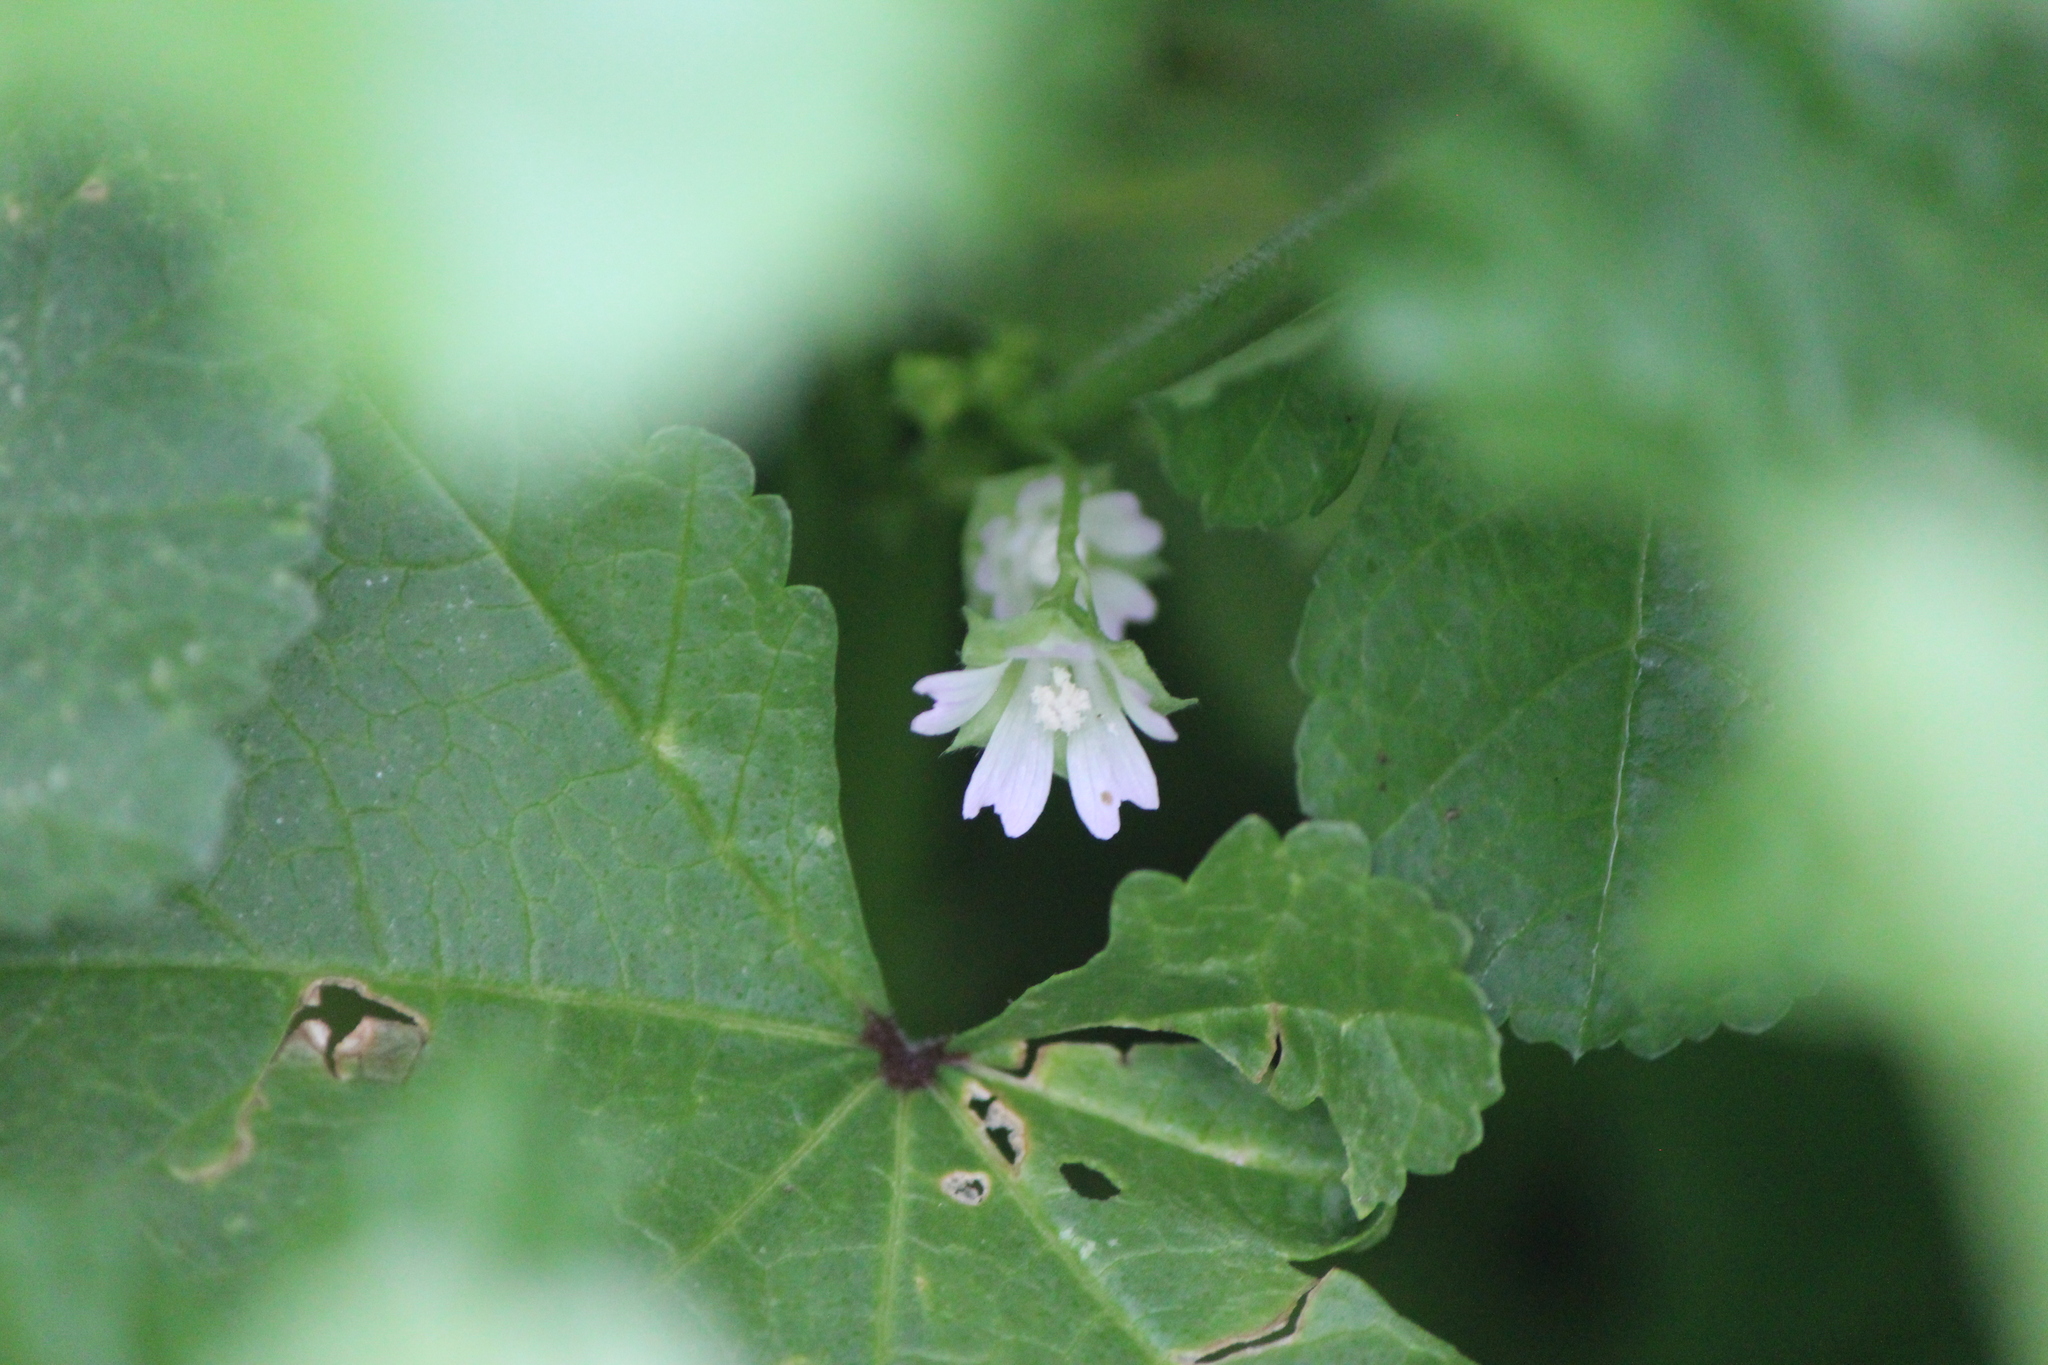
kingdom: Plantae
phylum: Tracheophyta
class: Magnoliopsida
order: Malvales
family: Malvaceae
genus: Malva
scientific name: Malva parviflora
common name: Least mallow
